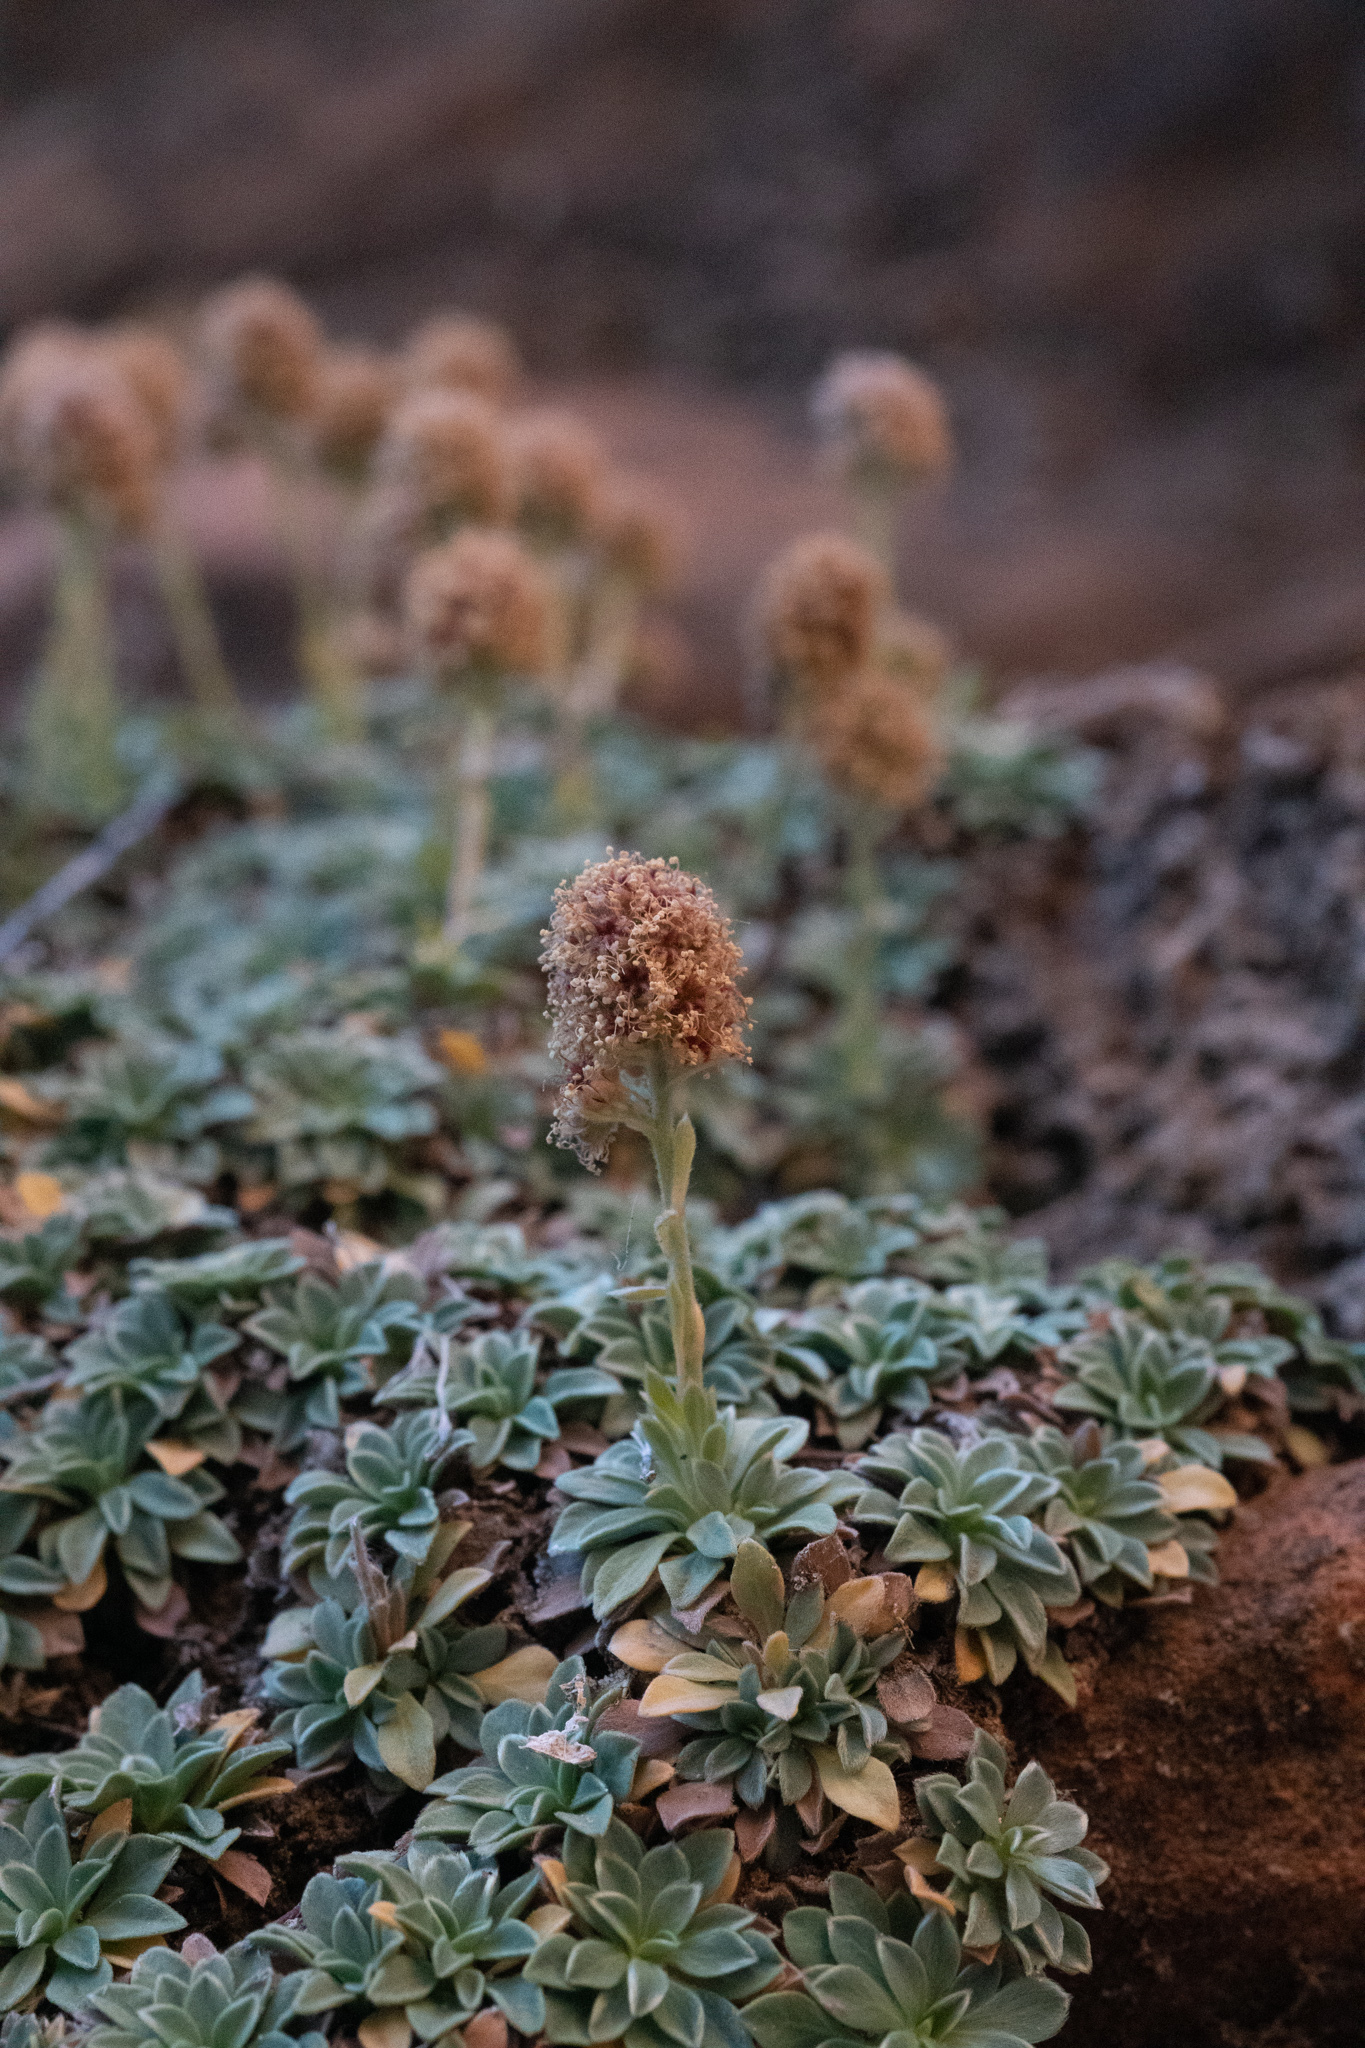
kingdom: Plantae
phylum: Tracheophyta
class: Magnoliopsida
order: Rosales
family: Rosaceae
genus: Petrophytum
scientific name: Petrophytum caespitosum
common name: Mat rockspirea
